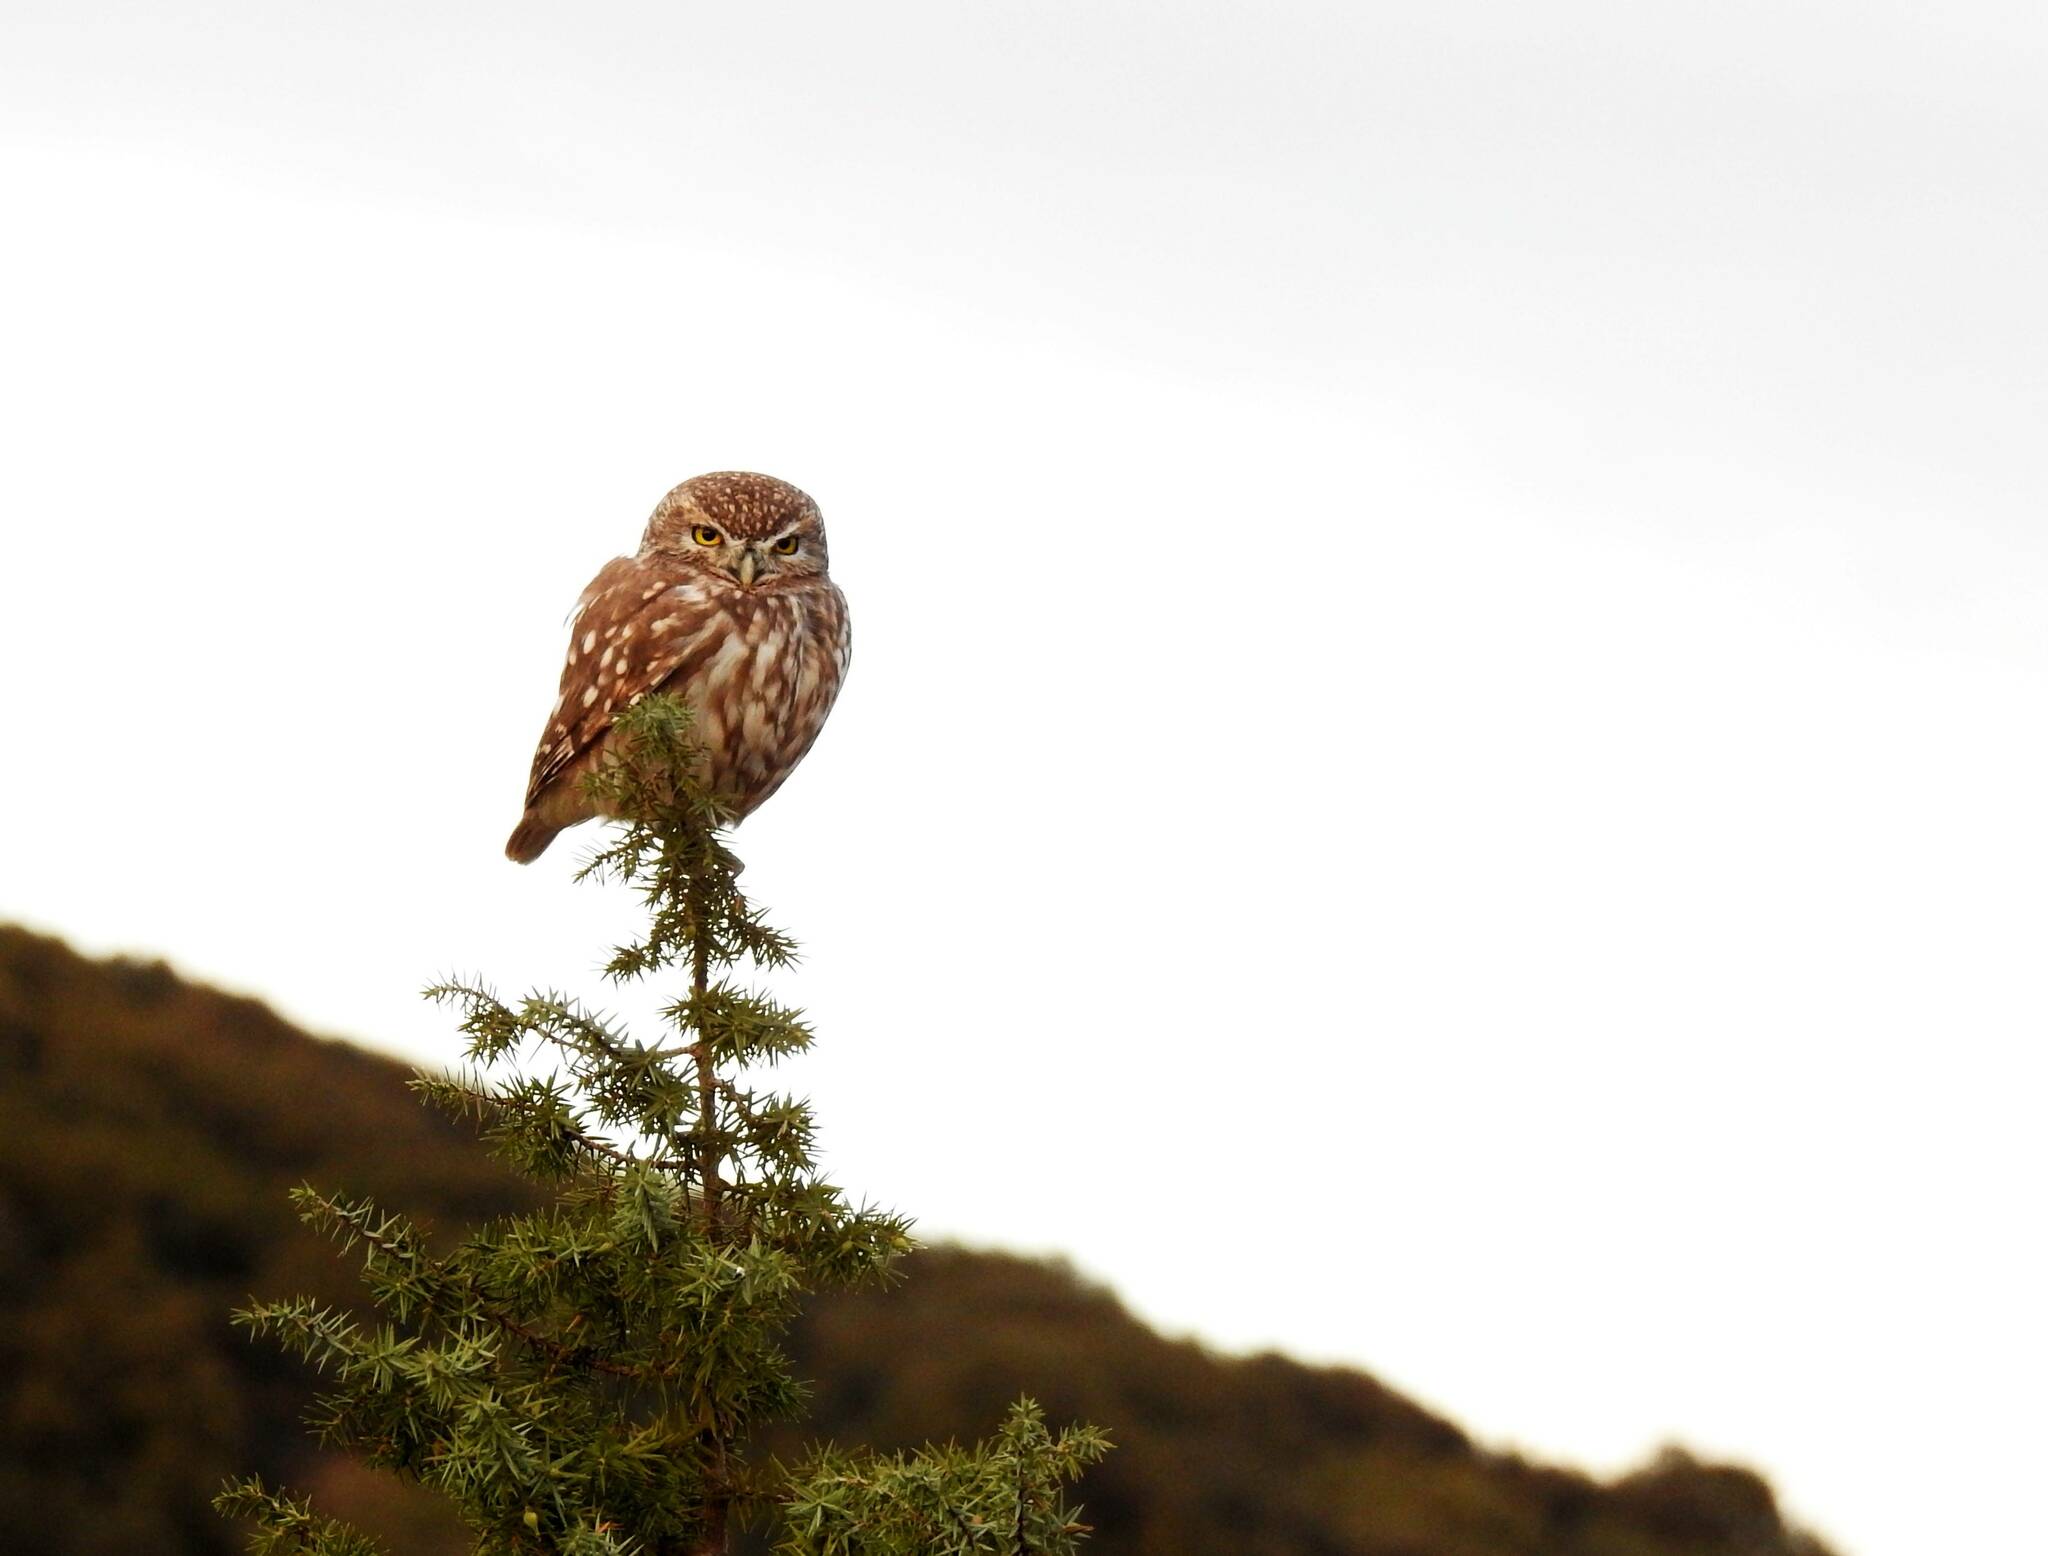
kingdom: Animalia
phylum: Chordata
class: Aves
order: Strigiformes
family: Strigidae
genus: Athene
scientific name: Athene noctua
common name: Little owl
